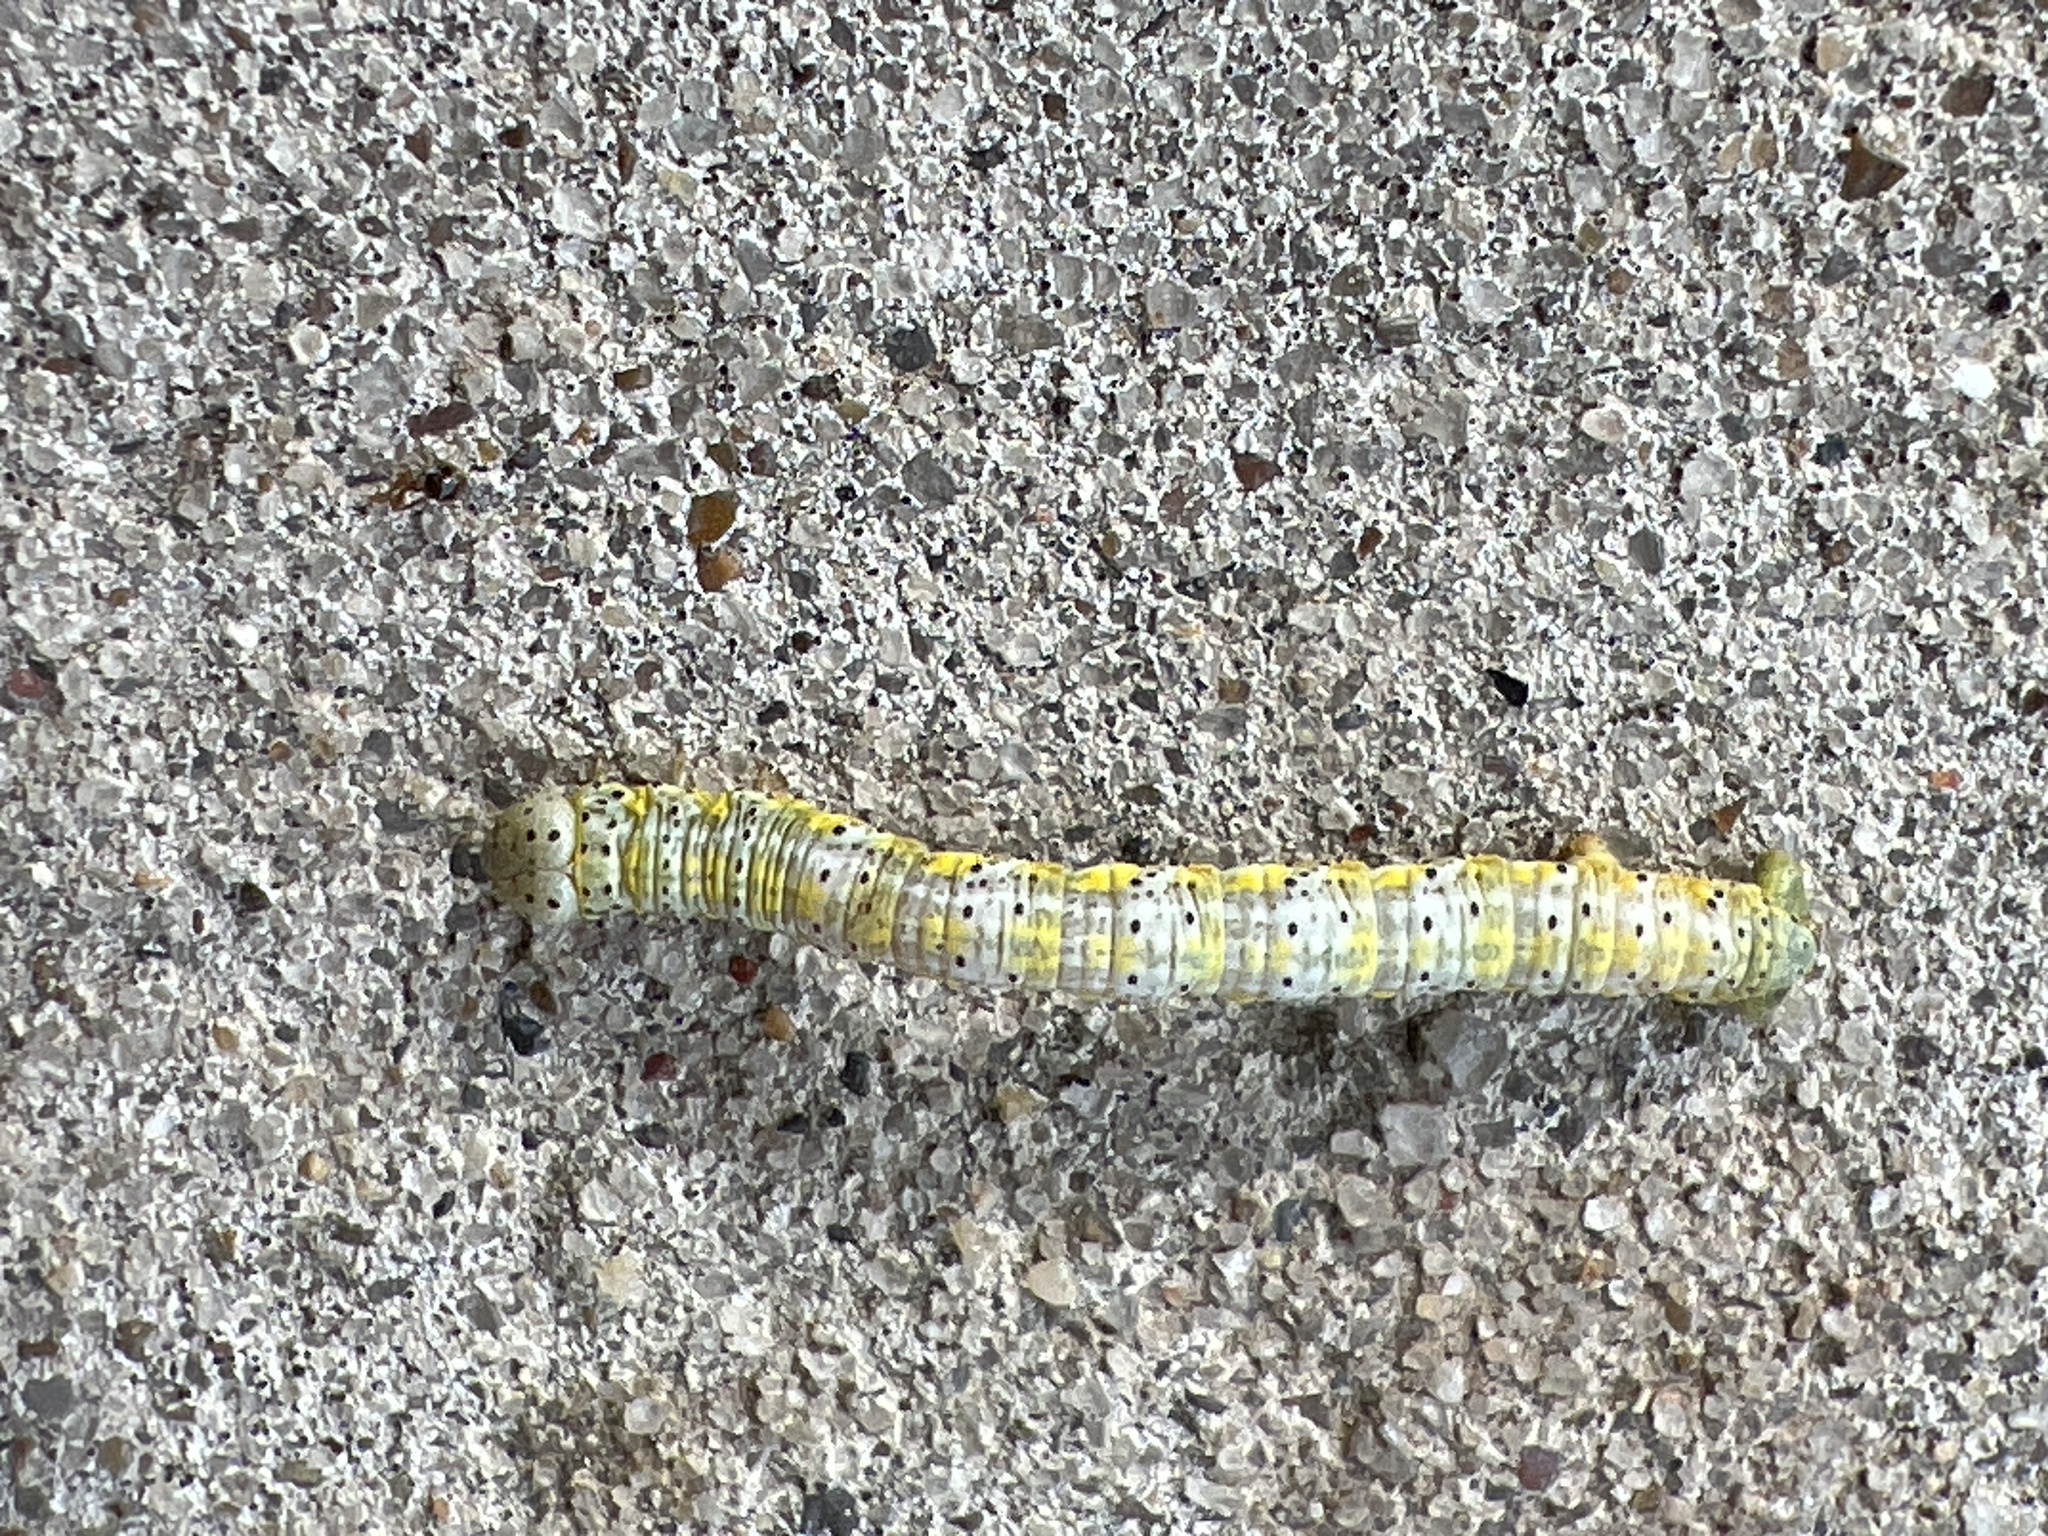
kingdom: Animalia
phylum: Arthropoda
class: Insecta
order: Lepidoptera
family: Geometridae
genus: Isturgia
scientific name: Isturgia dislocaria
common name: Pale-viened enconista
